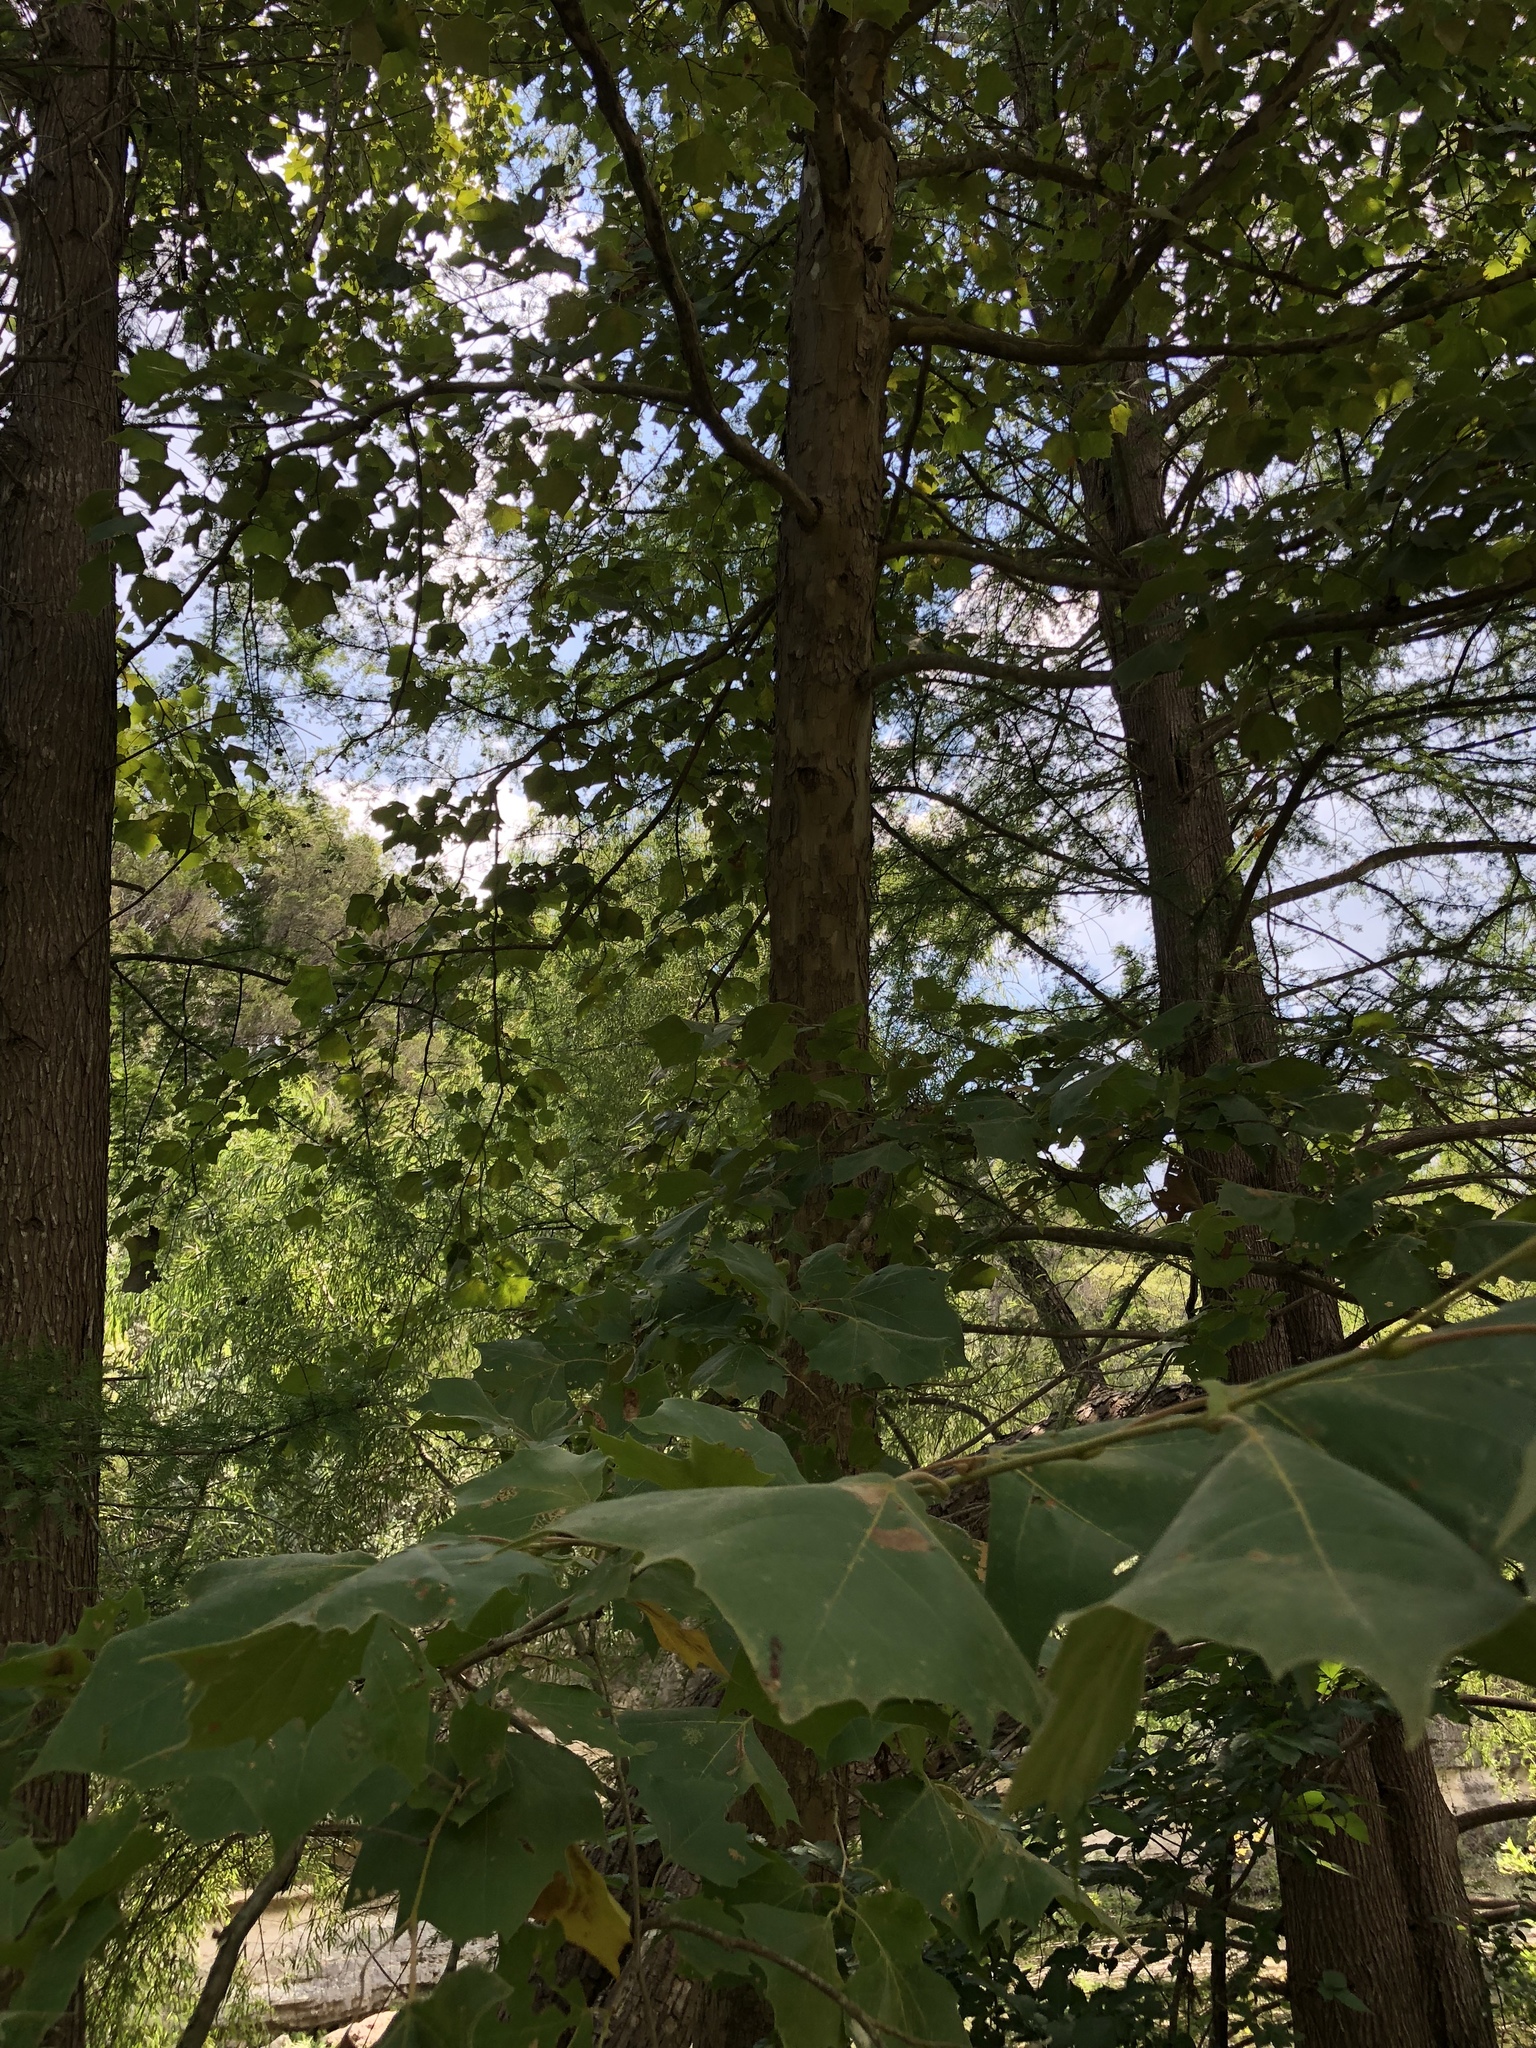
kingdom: Plantae
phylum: Tracheophyta
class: Magnoliopsida
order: Proteales
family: Platanaceae
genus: Platanus
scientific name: Platanus occidentalis
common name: American sycamore
